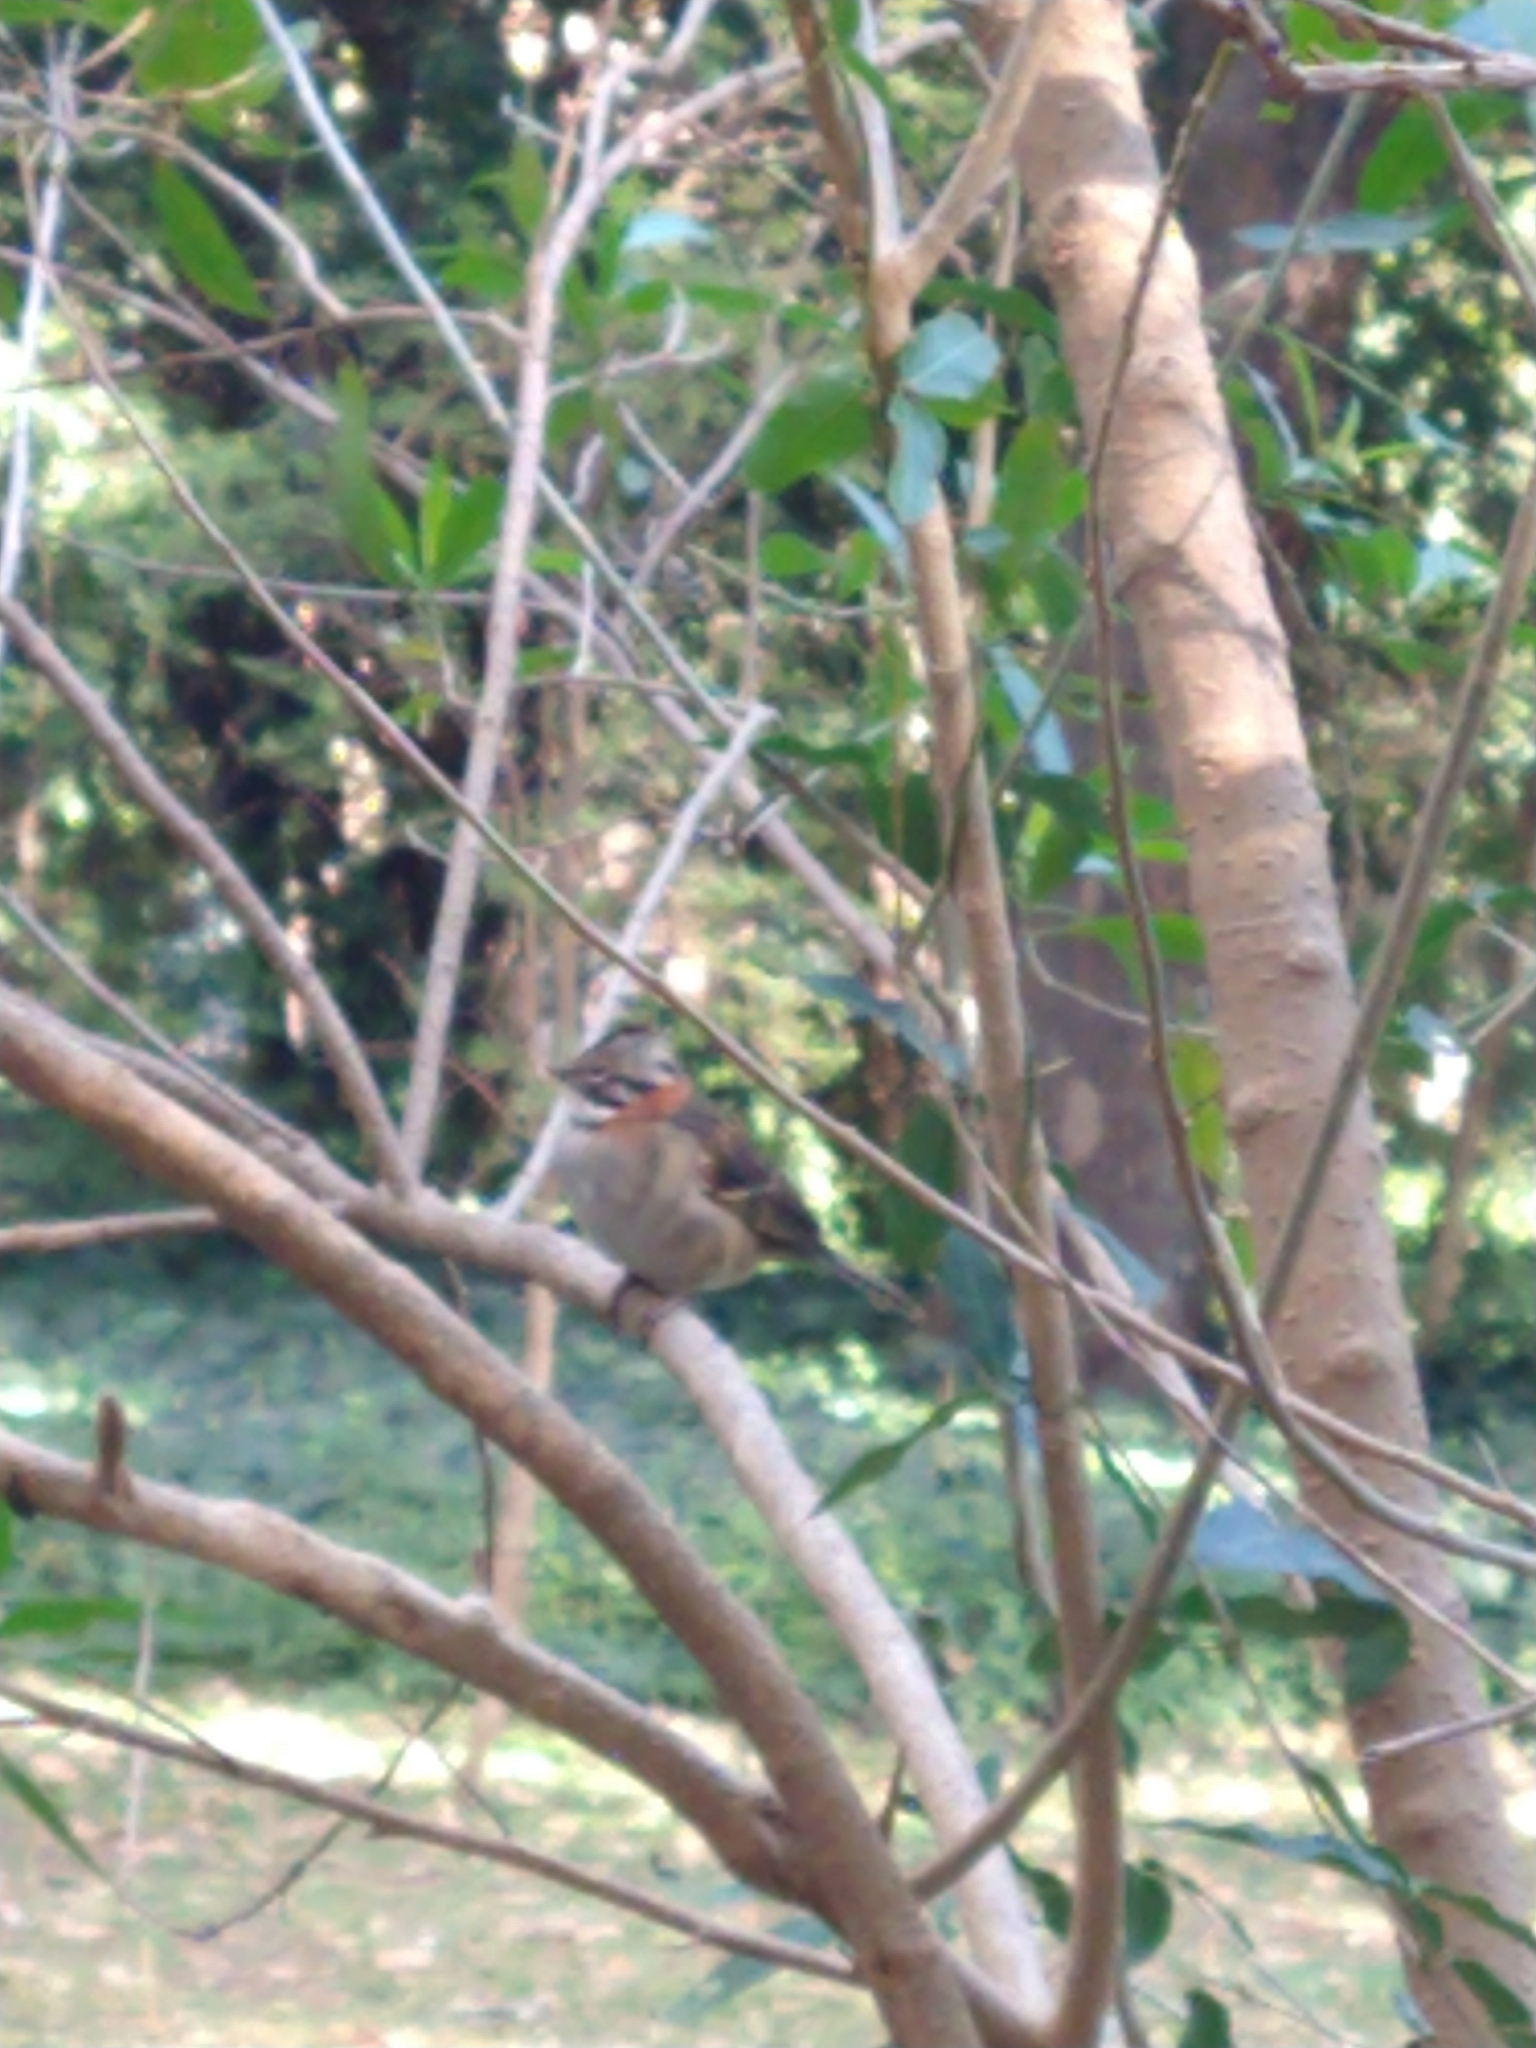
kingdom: Animalia
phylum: Chordata
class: Aves
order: Passeriformes
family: Passerellidae
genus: Zonotrichia
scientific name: Zonotrichia capensis
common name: Rufous-collared sparrow
